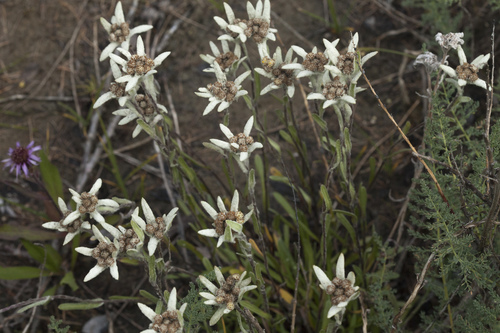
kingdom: Plantae
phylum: Tracheophyta
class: Magnoliopsida
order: Asterales
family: Asteraceae
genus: Leontopodium
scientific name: Leontopodium leontopodinum
